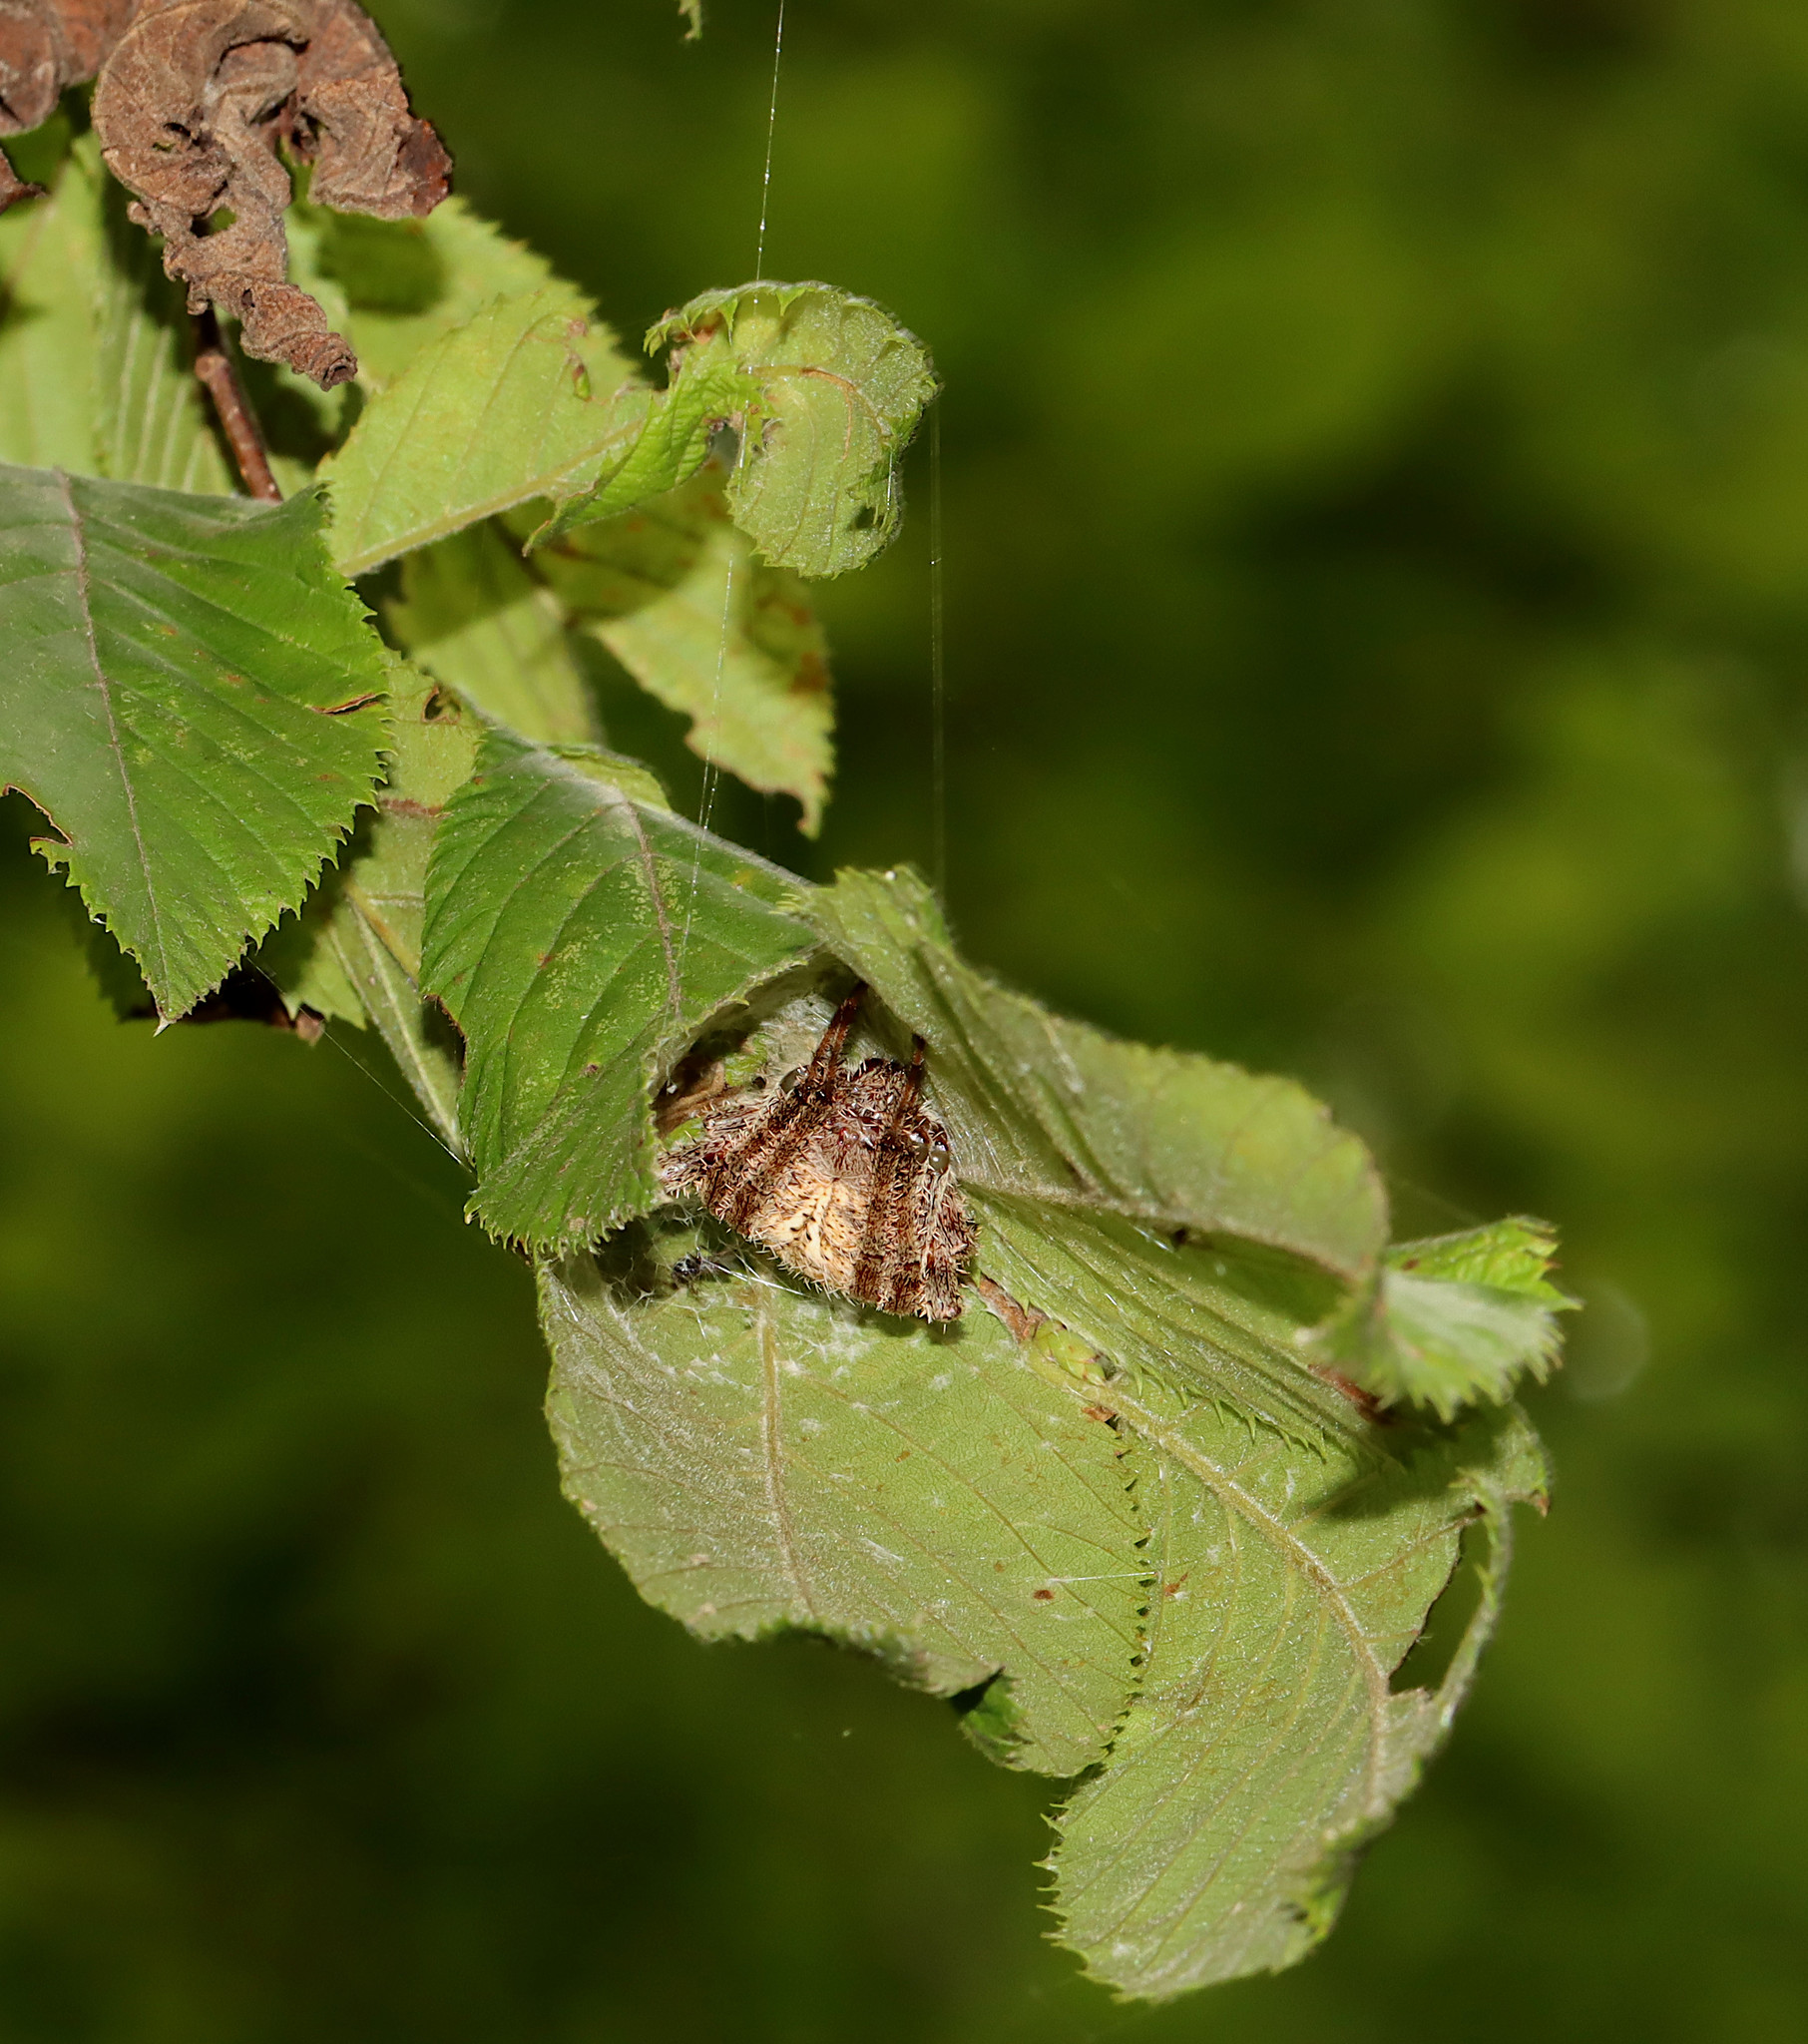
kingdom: Animalia
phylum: Arthropoda
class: Arachnida
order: Araneae
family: Araneidae
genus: Neoscona
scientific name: Neoscona arabesca
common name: Orb weavers
